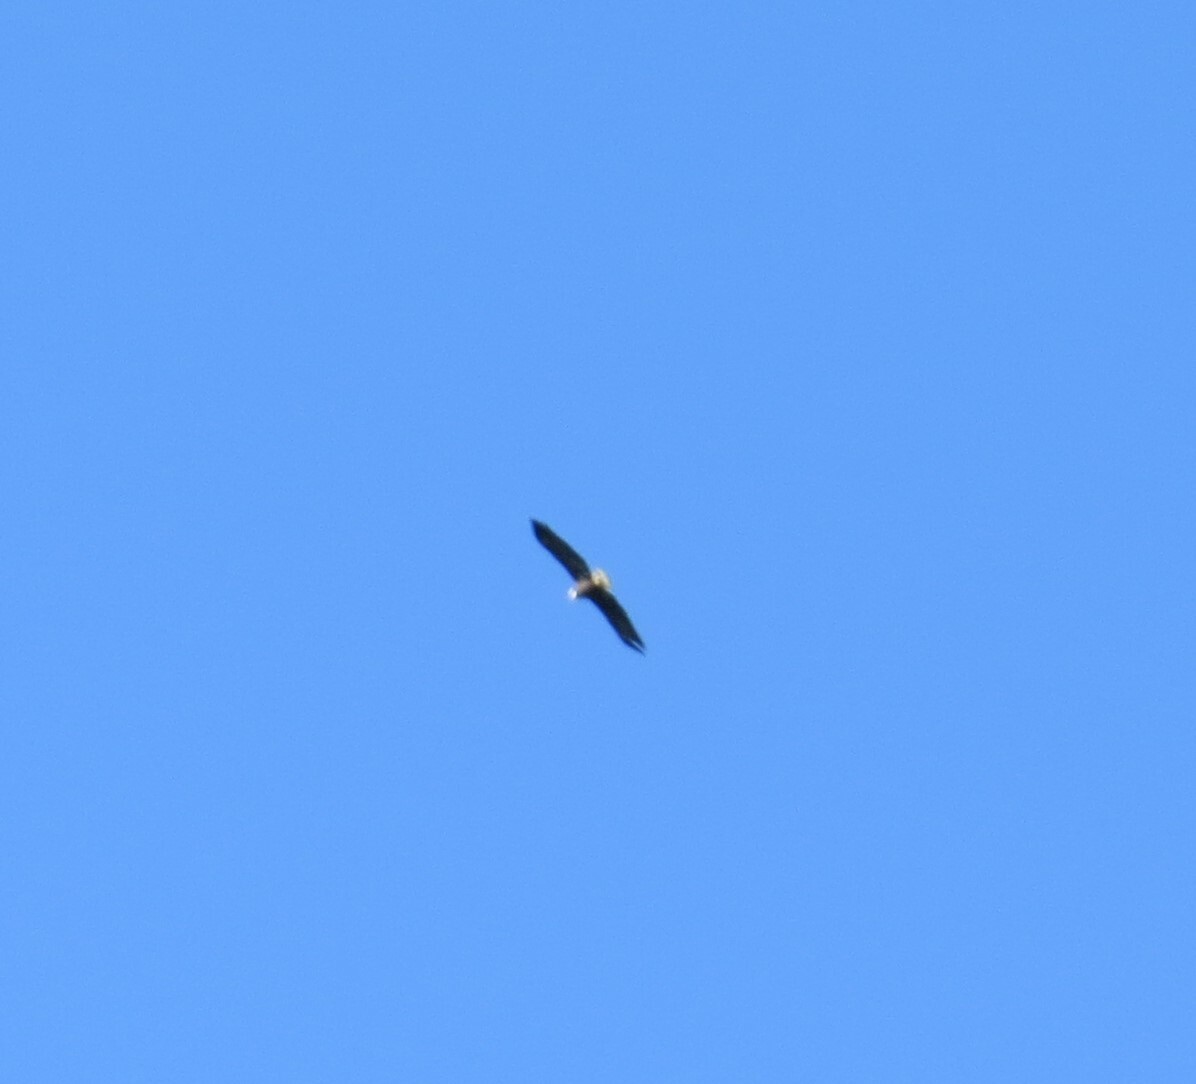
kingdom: Animalia
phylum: Chordata
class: Aves
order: Accipitriformes
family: Accipitridae
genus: Haliaeetus
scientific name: Haliaeetus leucocephalus
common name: Bald eagle
